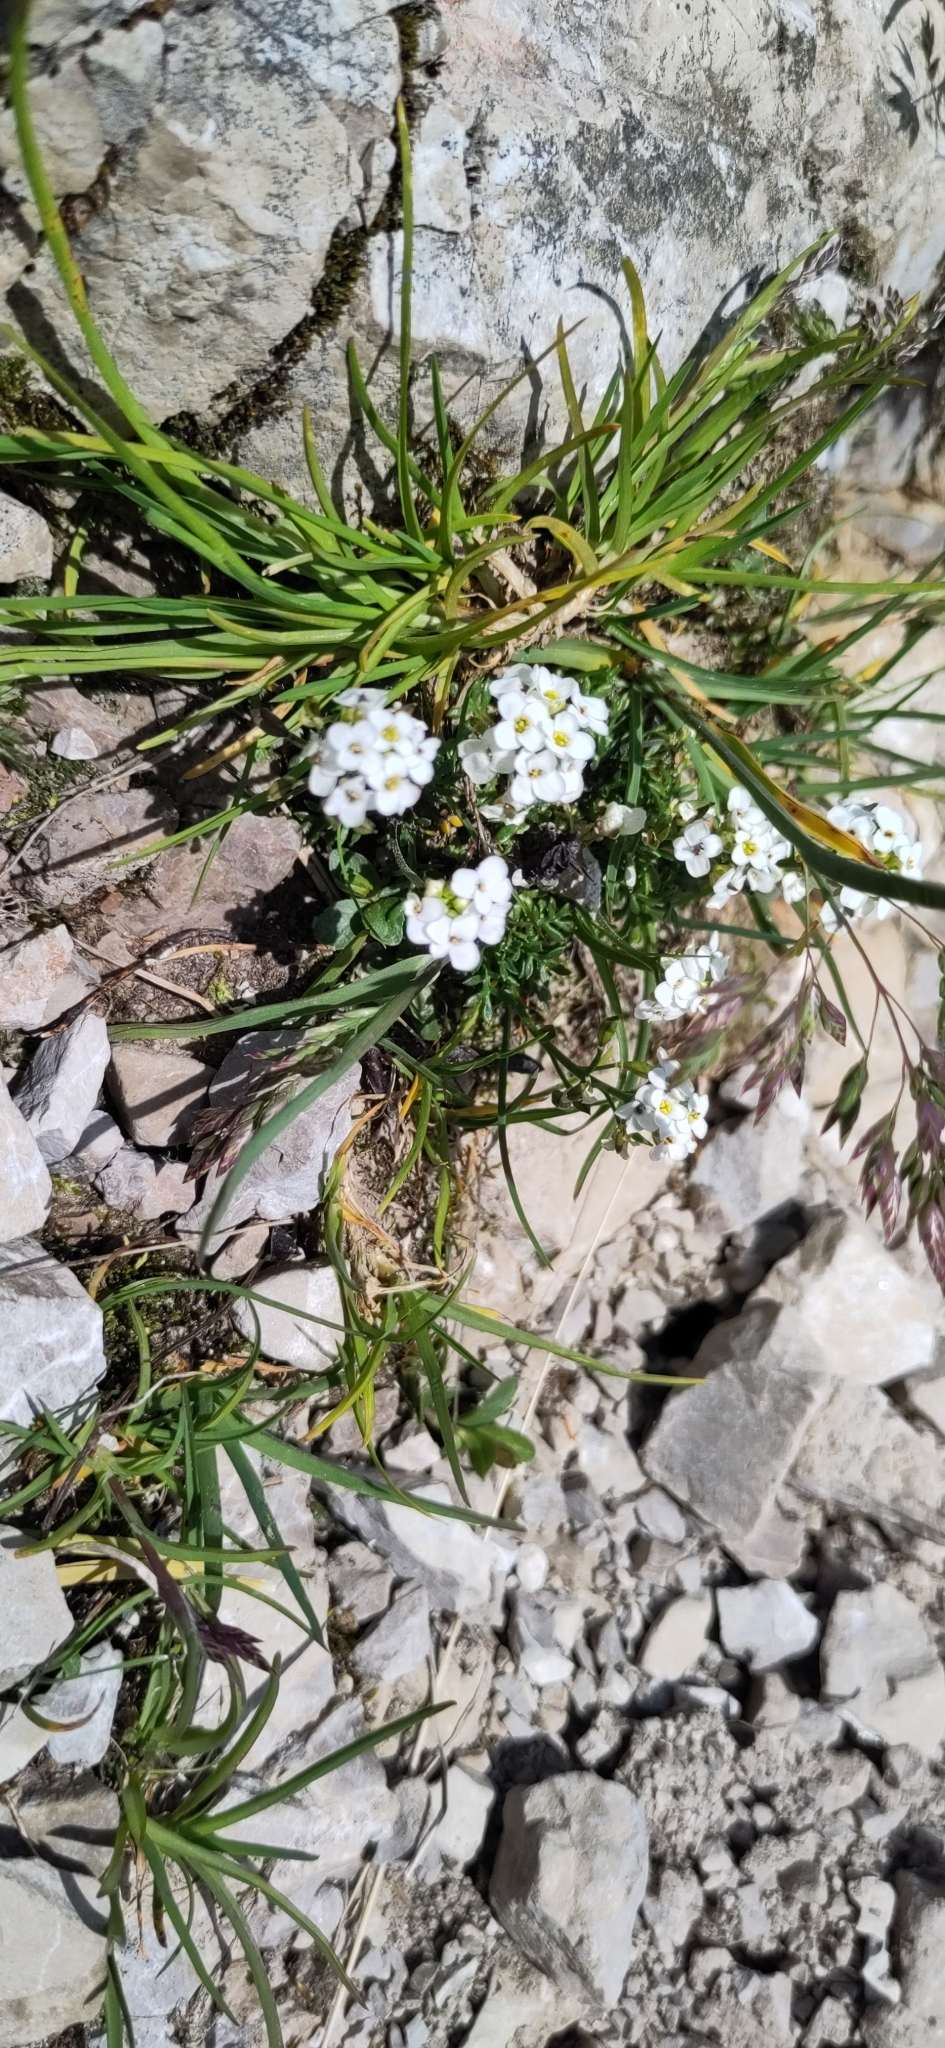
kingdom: Plantae
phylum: Tracheophyta
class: Magnoliopsida
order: Brassicales
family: Brassicaceae
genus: Hornungia
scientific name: Hornungia alpina
